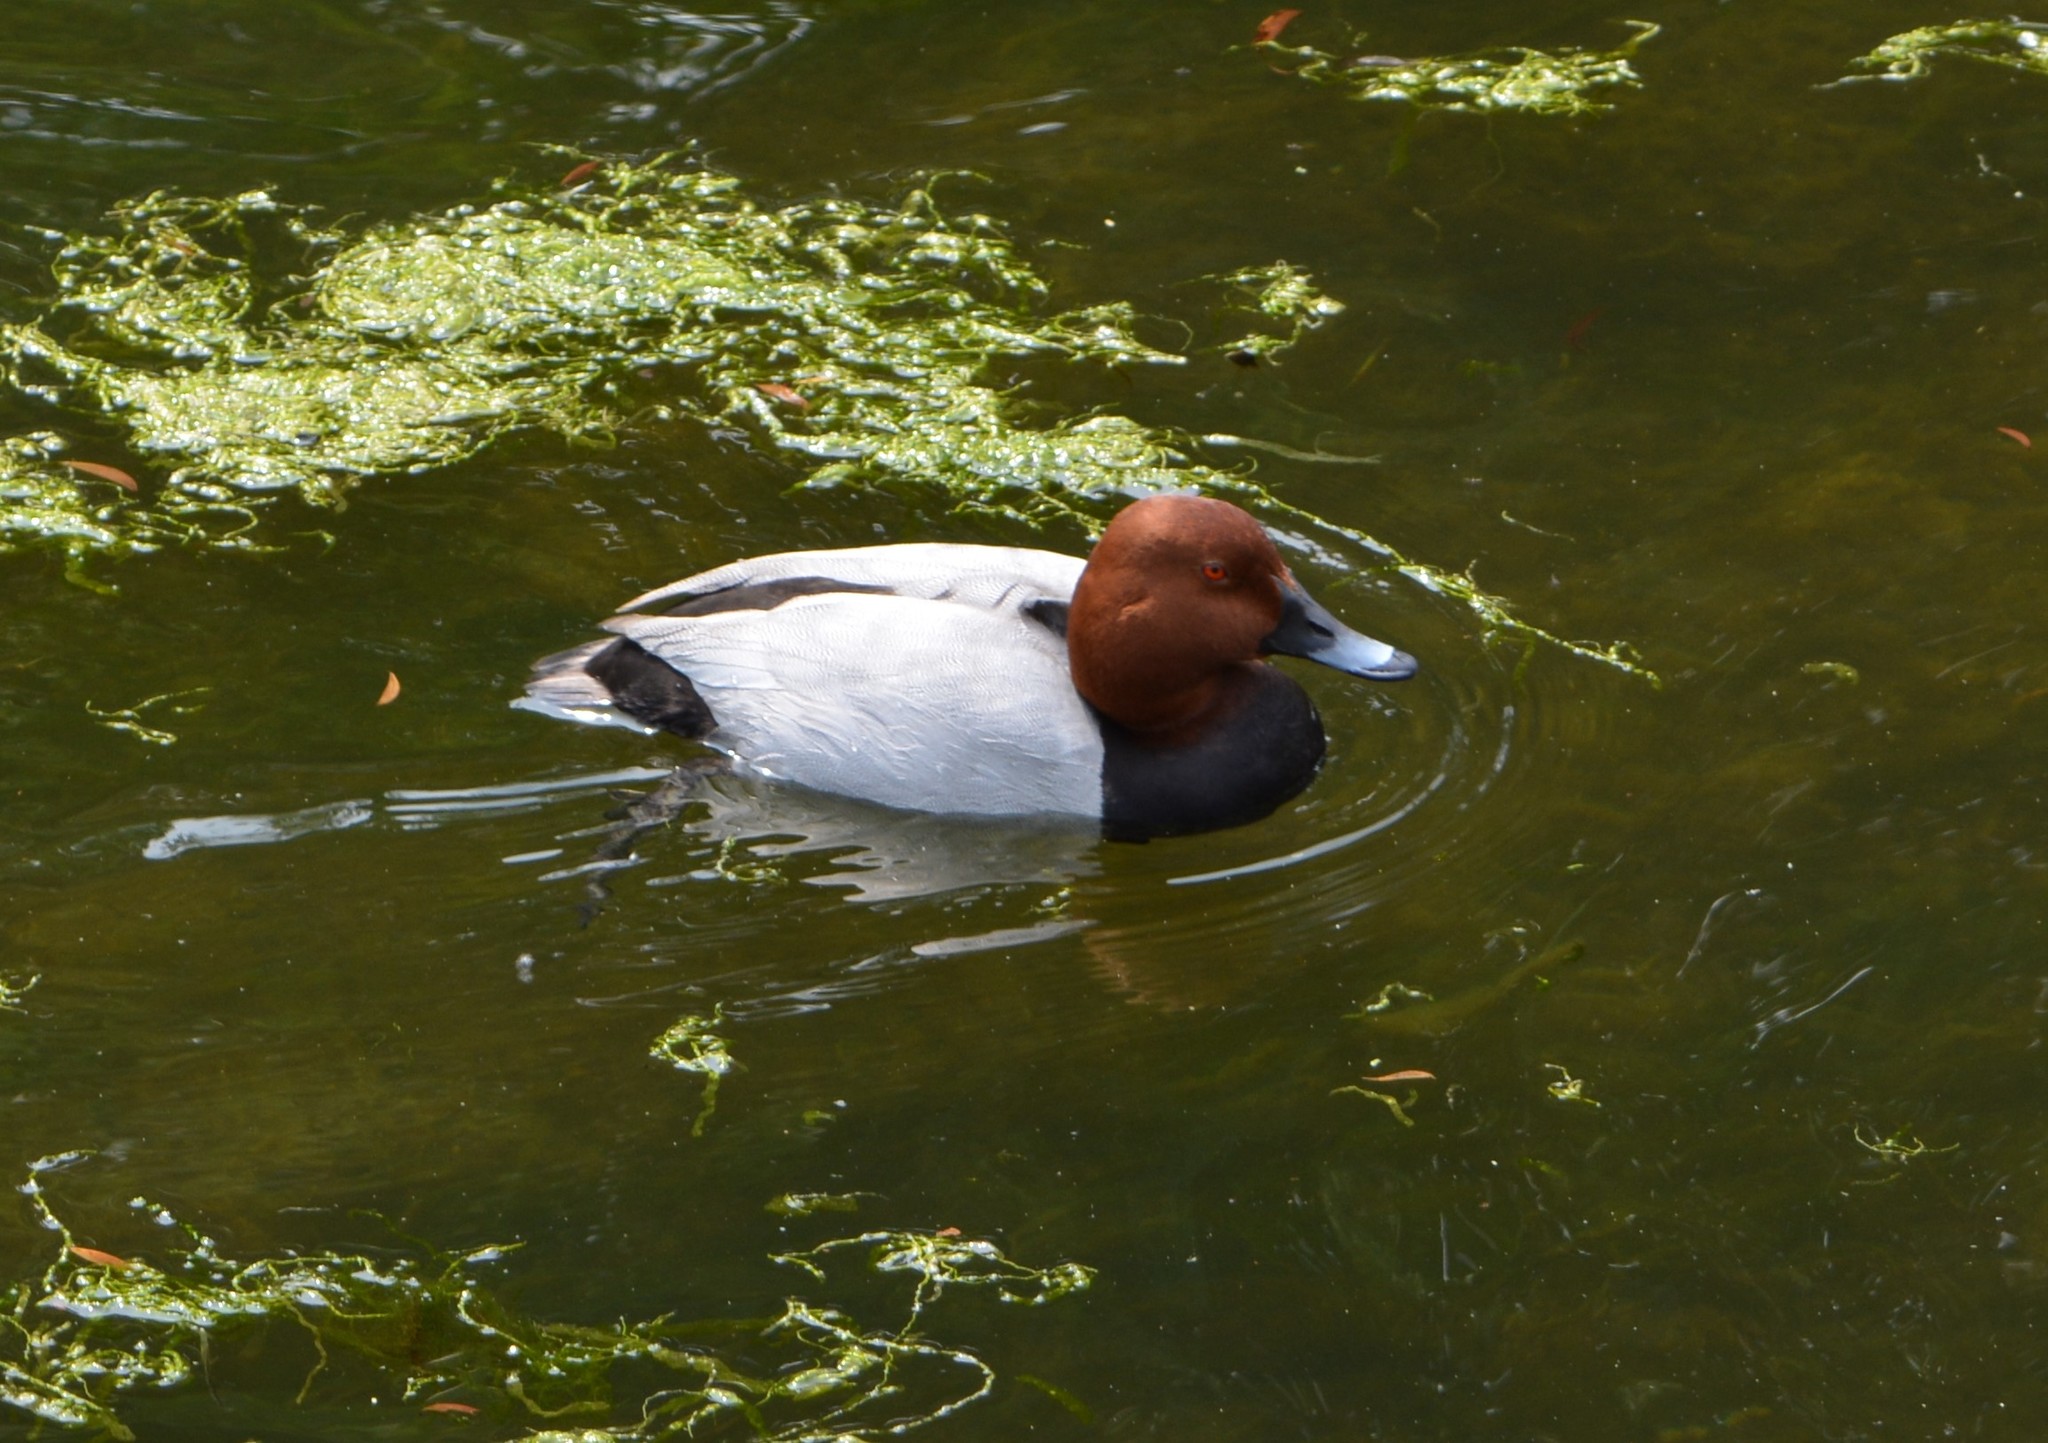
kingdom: Animalia
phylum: Chordata
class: Aves
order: Anseriformes
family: Anatidae
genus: Aythya
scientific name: Aythya ferina
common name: Common pochard
